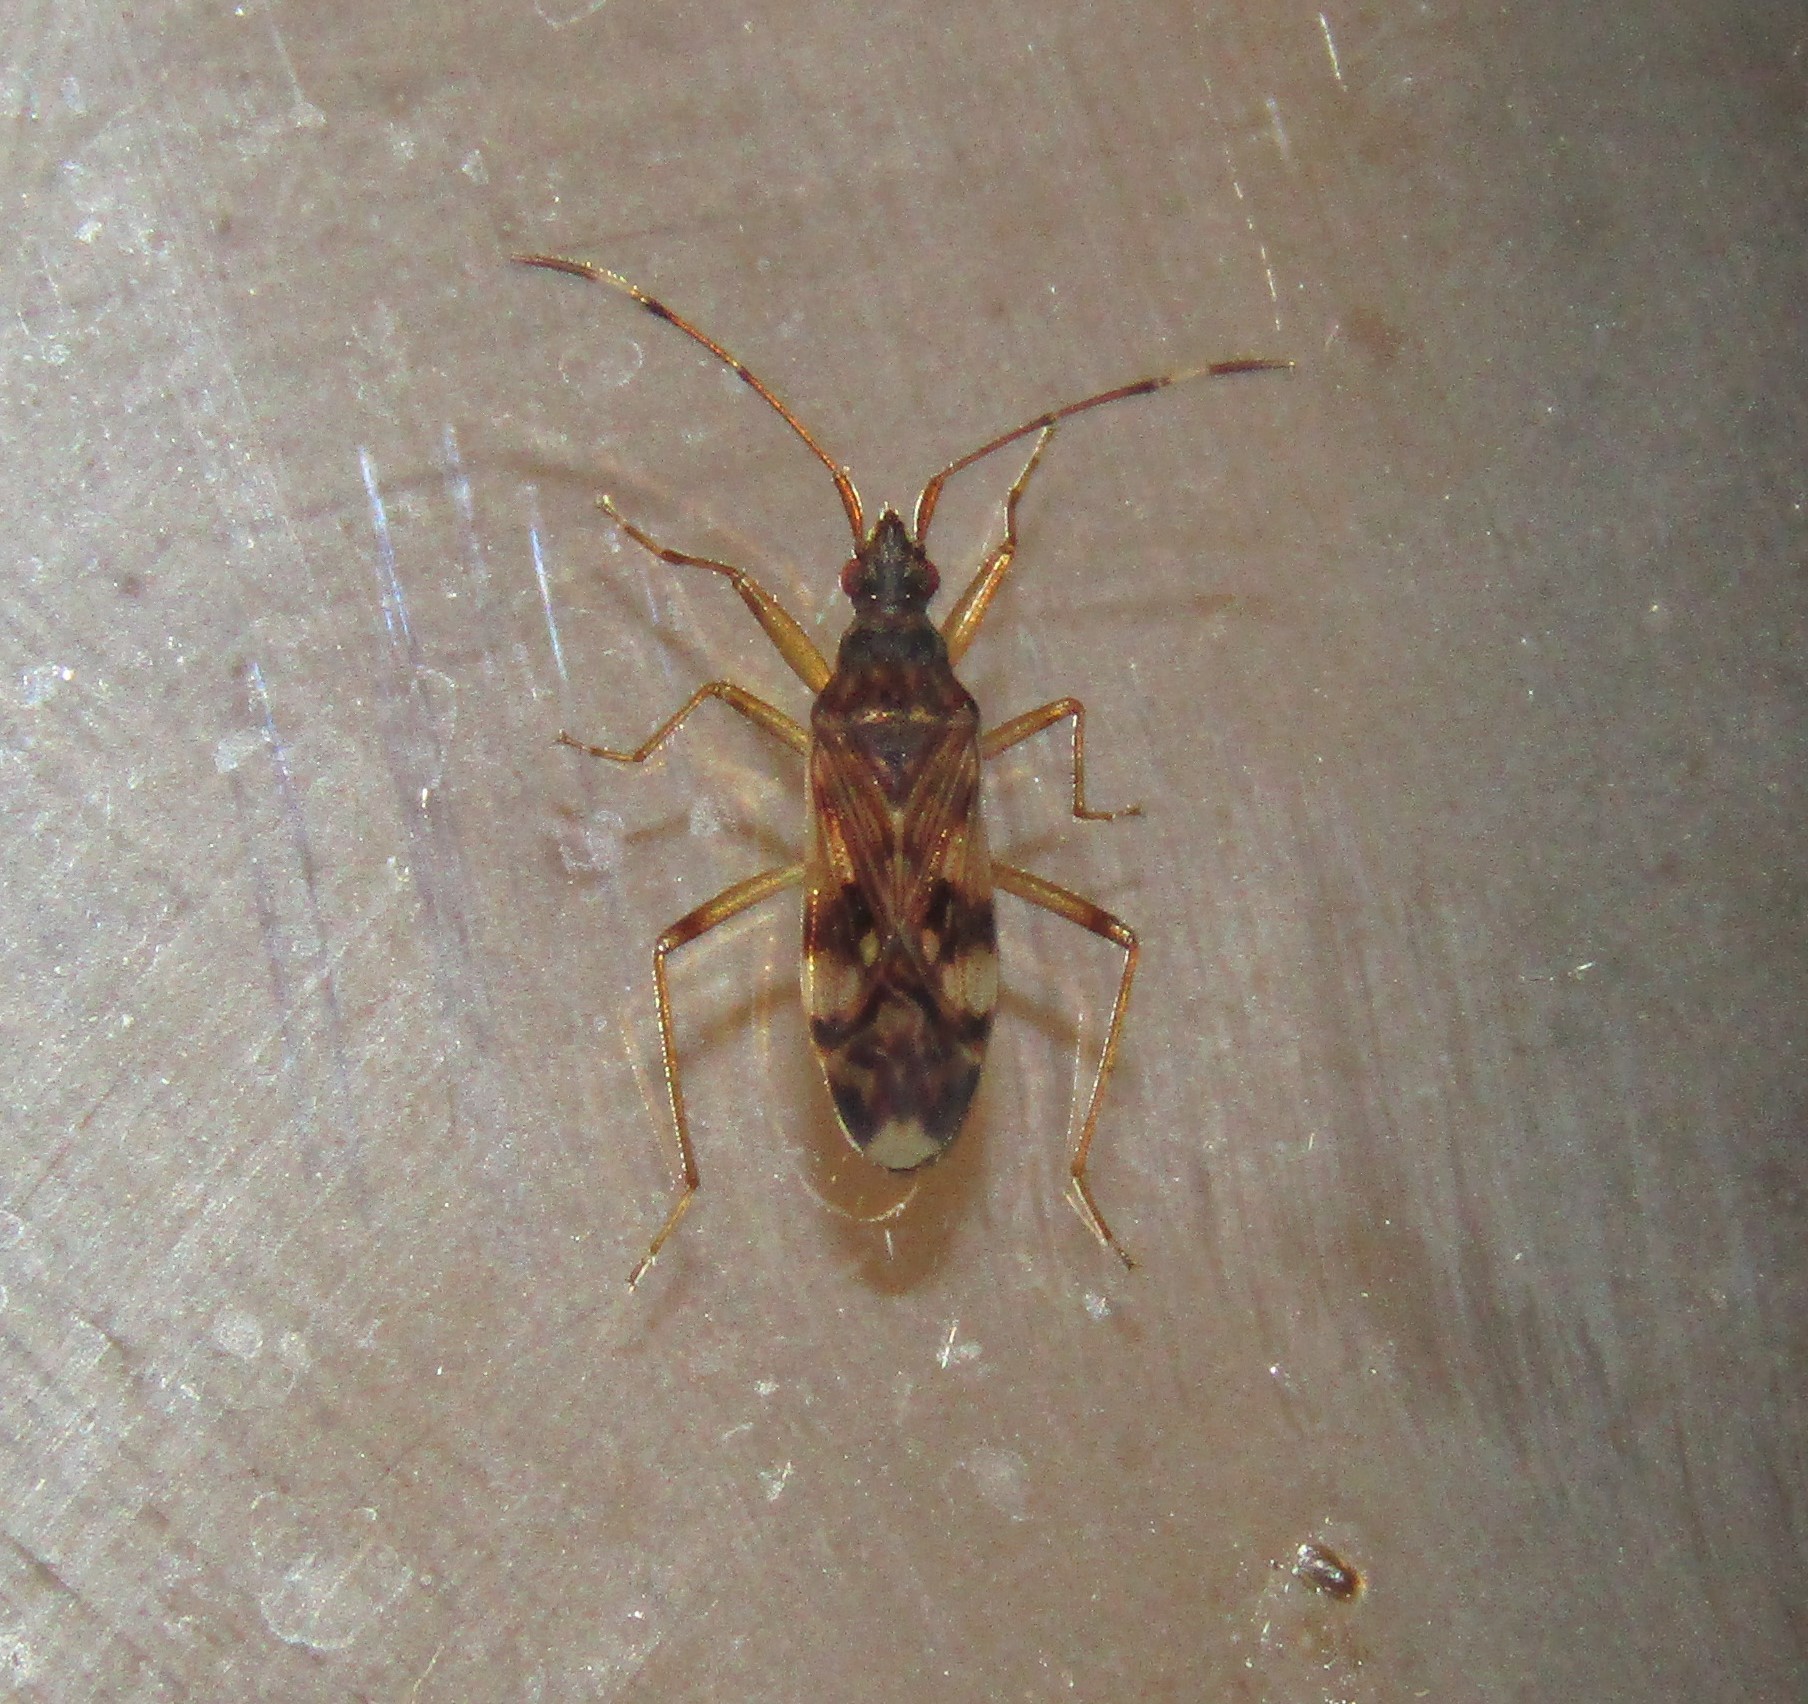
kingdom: Animalia
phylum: Arthropoda
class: Insecta
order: Hemiptera
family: Rhyparochromidae
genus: Ozophora
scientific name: Ozophora picturata
